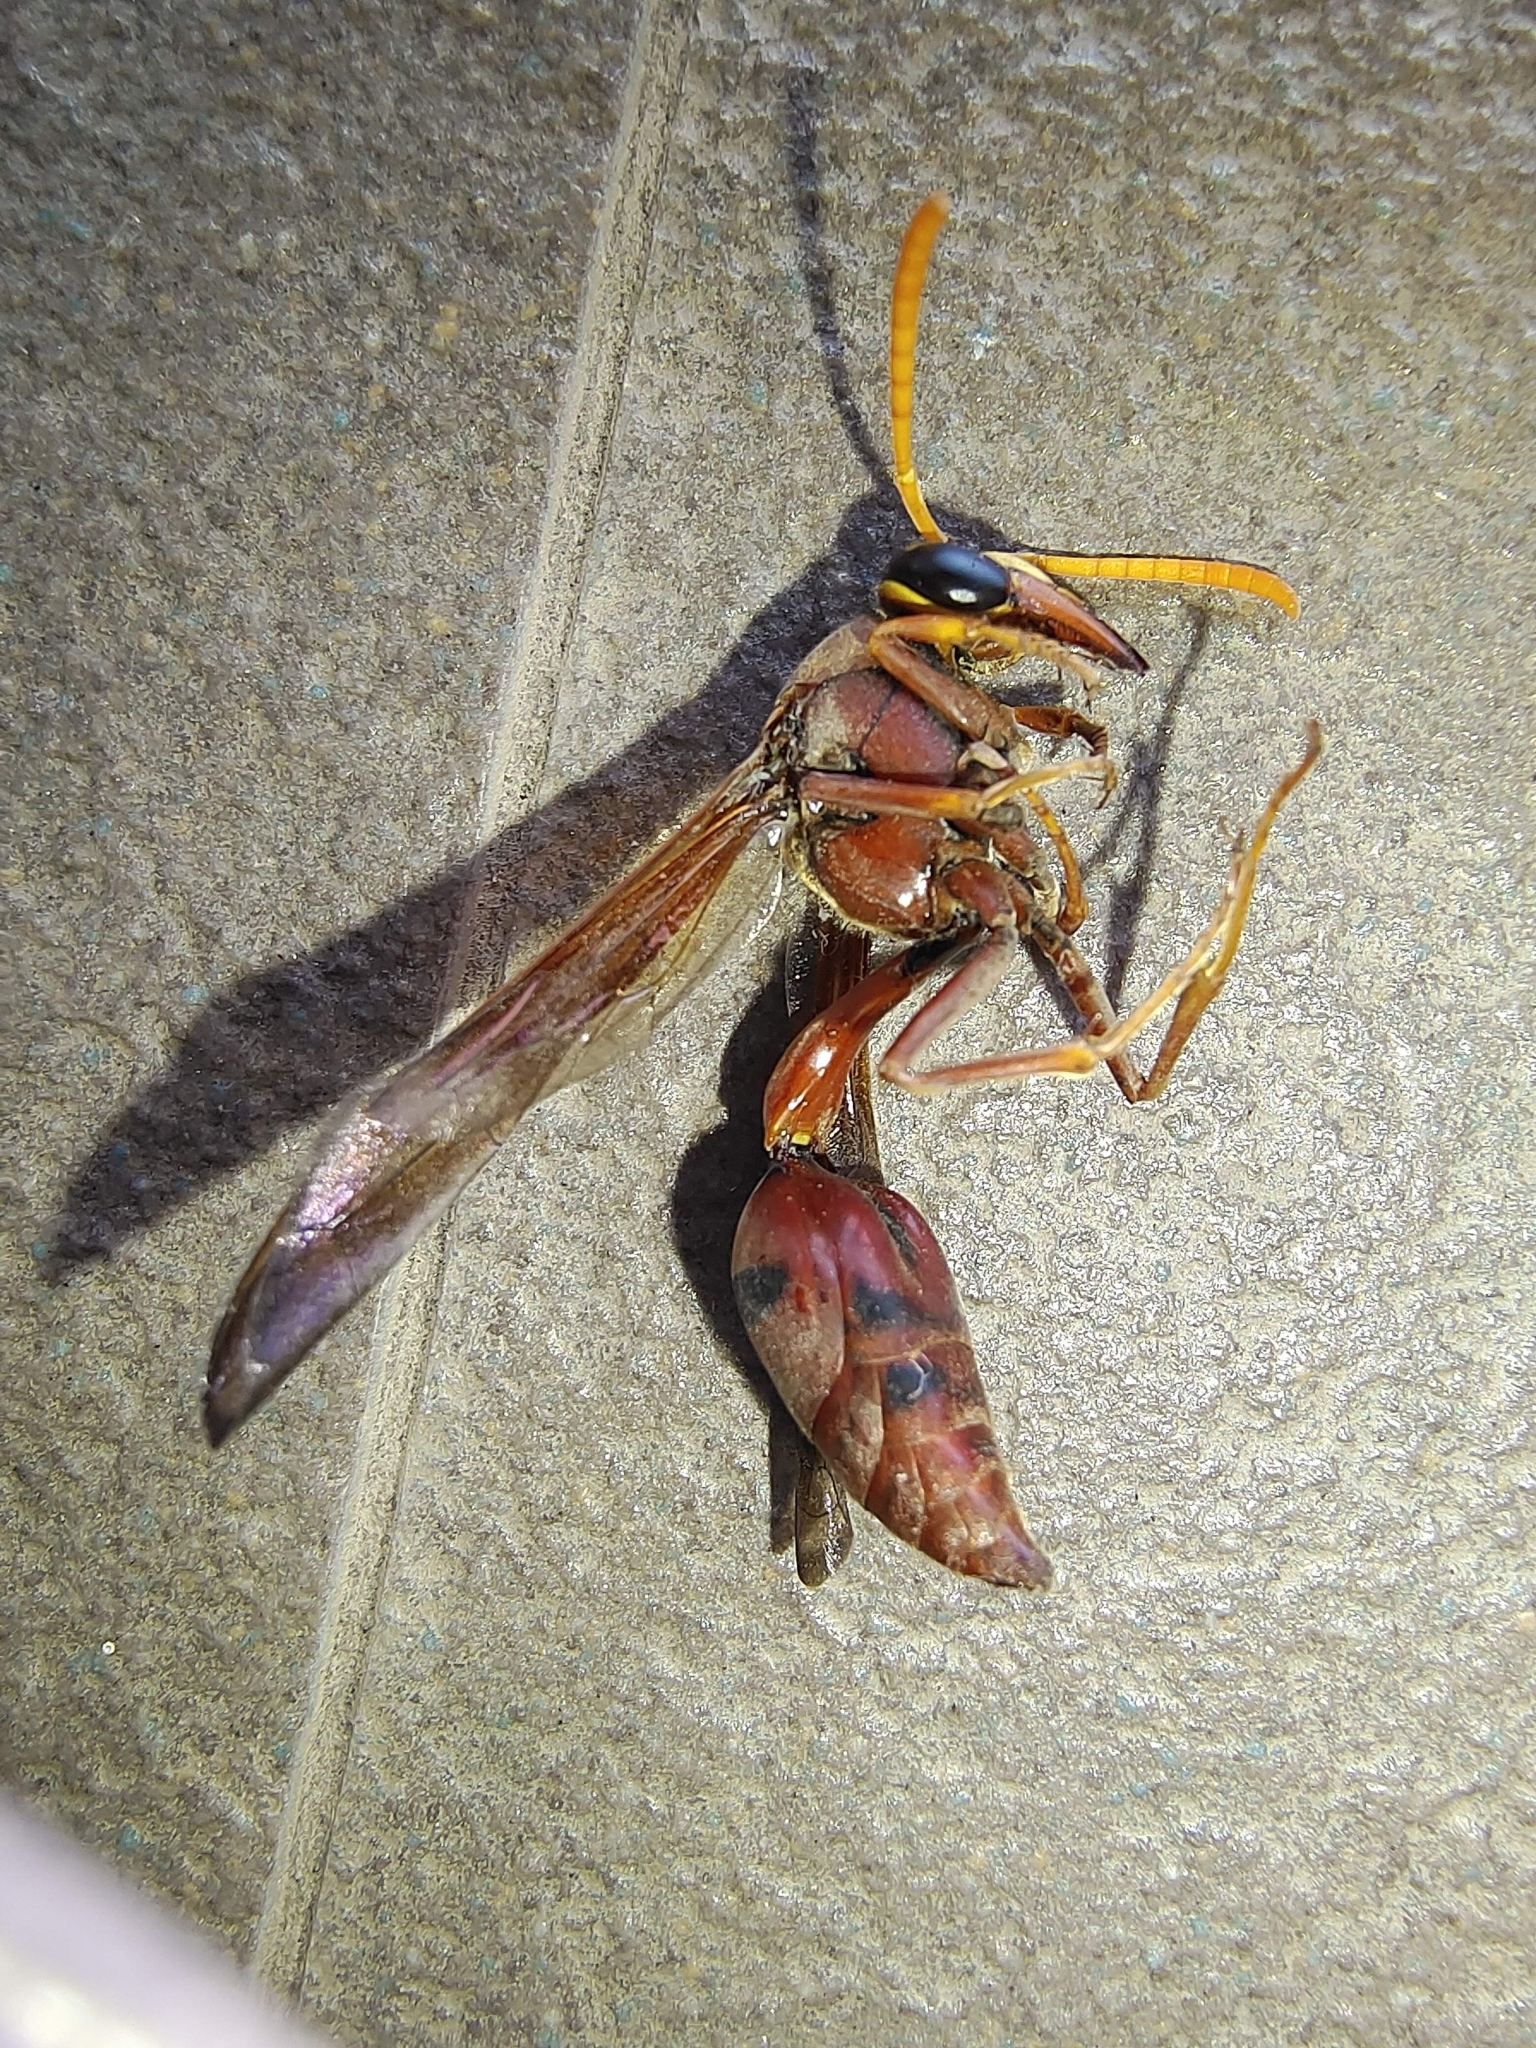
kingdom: Animalia
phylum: Arthropoda
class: Insecta
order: Hymenoptera
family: Eumenidae
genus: Delta
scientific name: Delta conoideum
